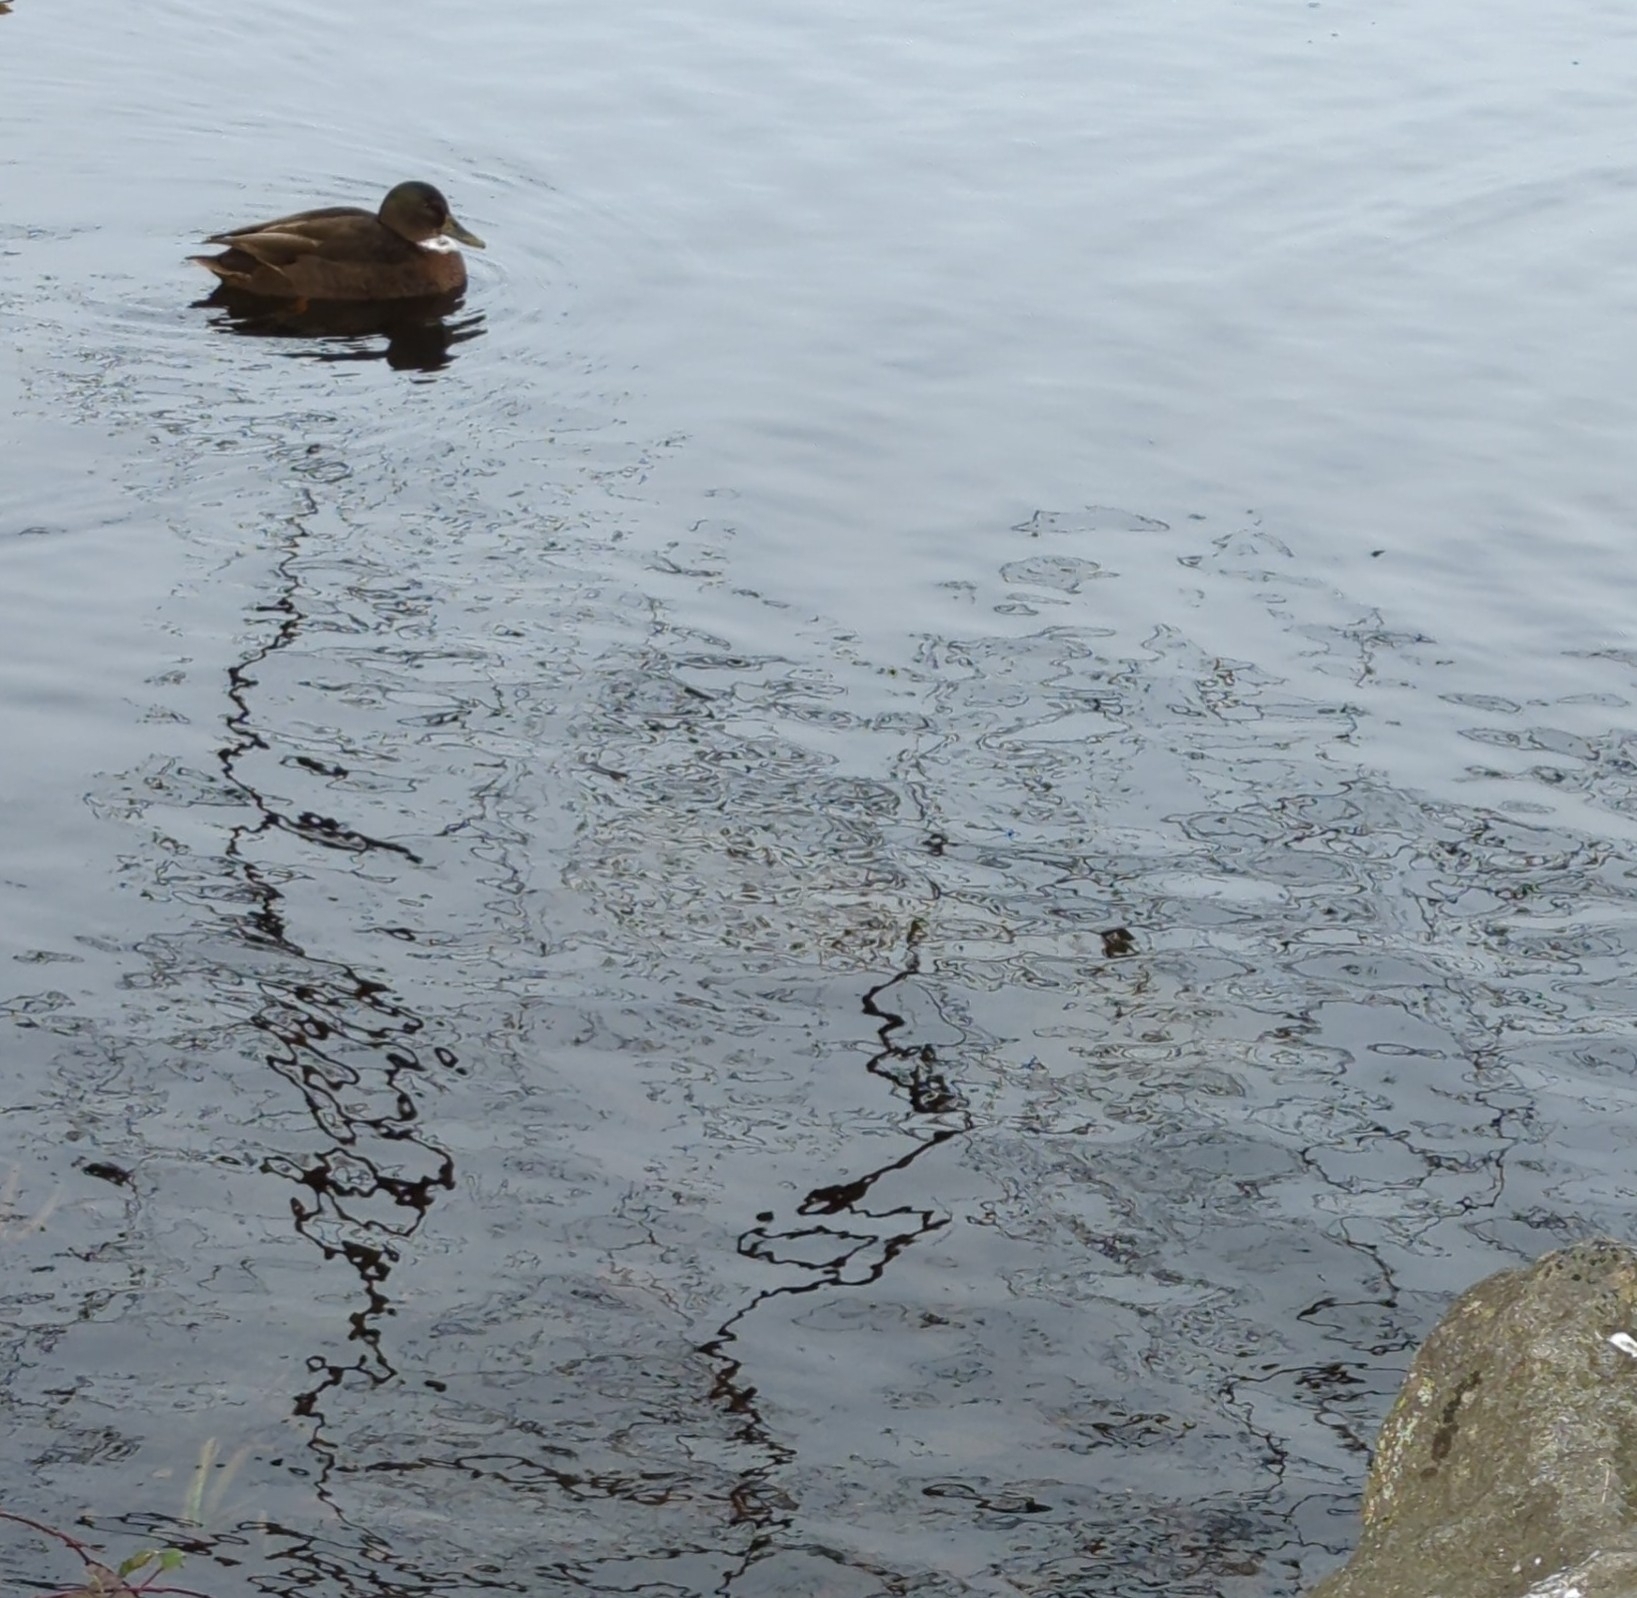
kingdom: Animalia
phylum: Chordata
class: Aves
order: Anseriformes
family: Anatidae
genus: Anas
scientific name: Anas platyrhynchos
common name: Mallard
